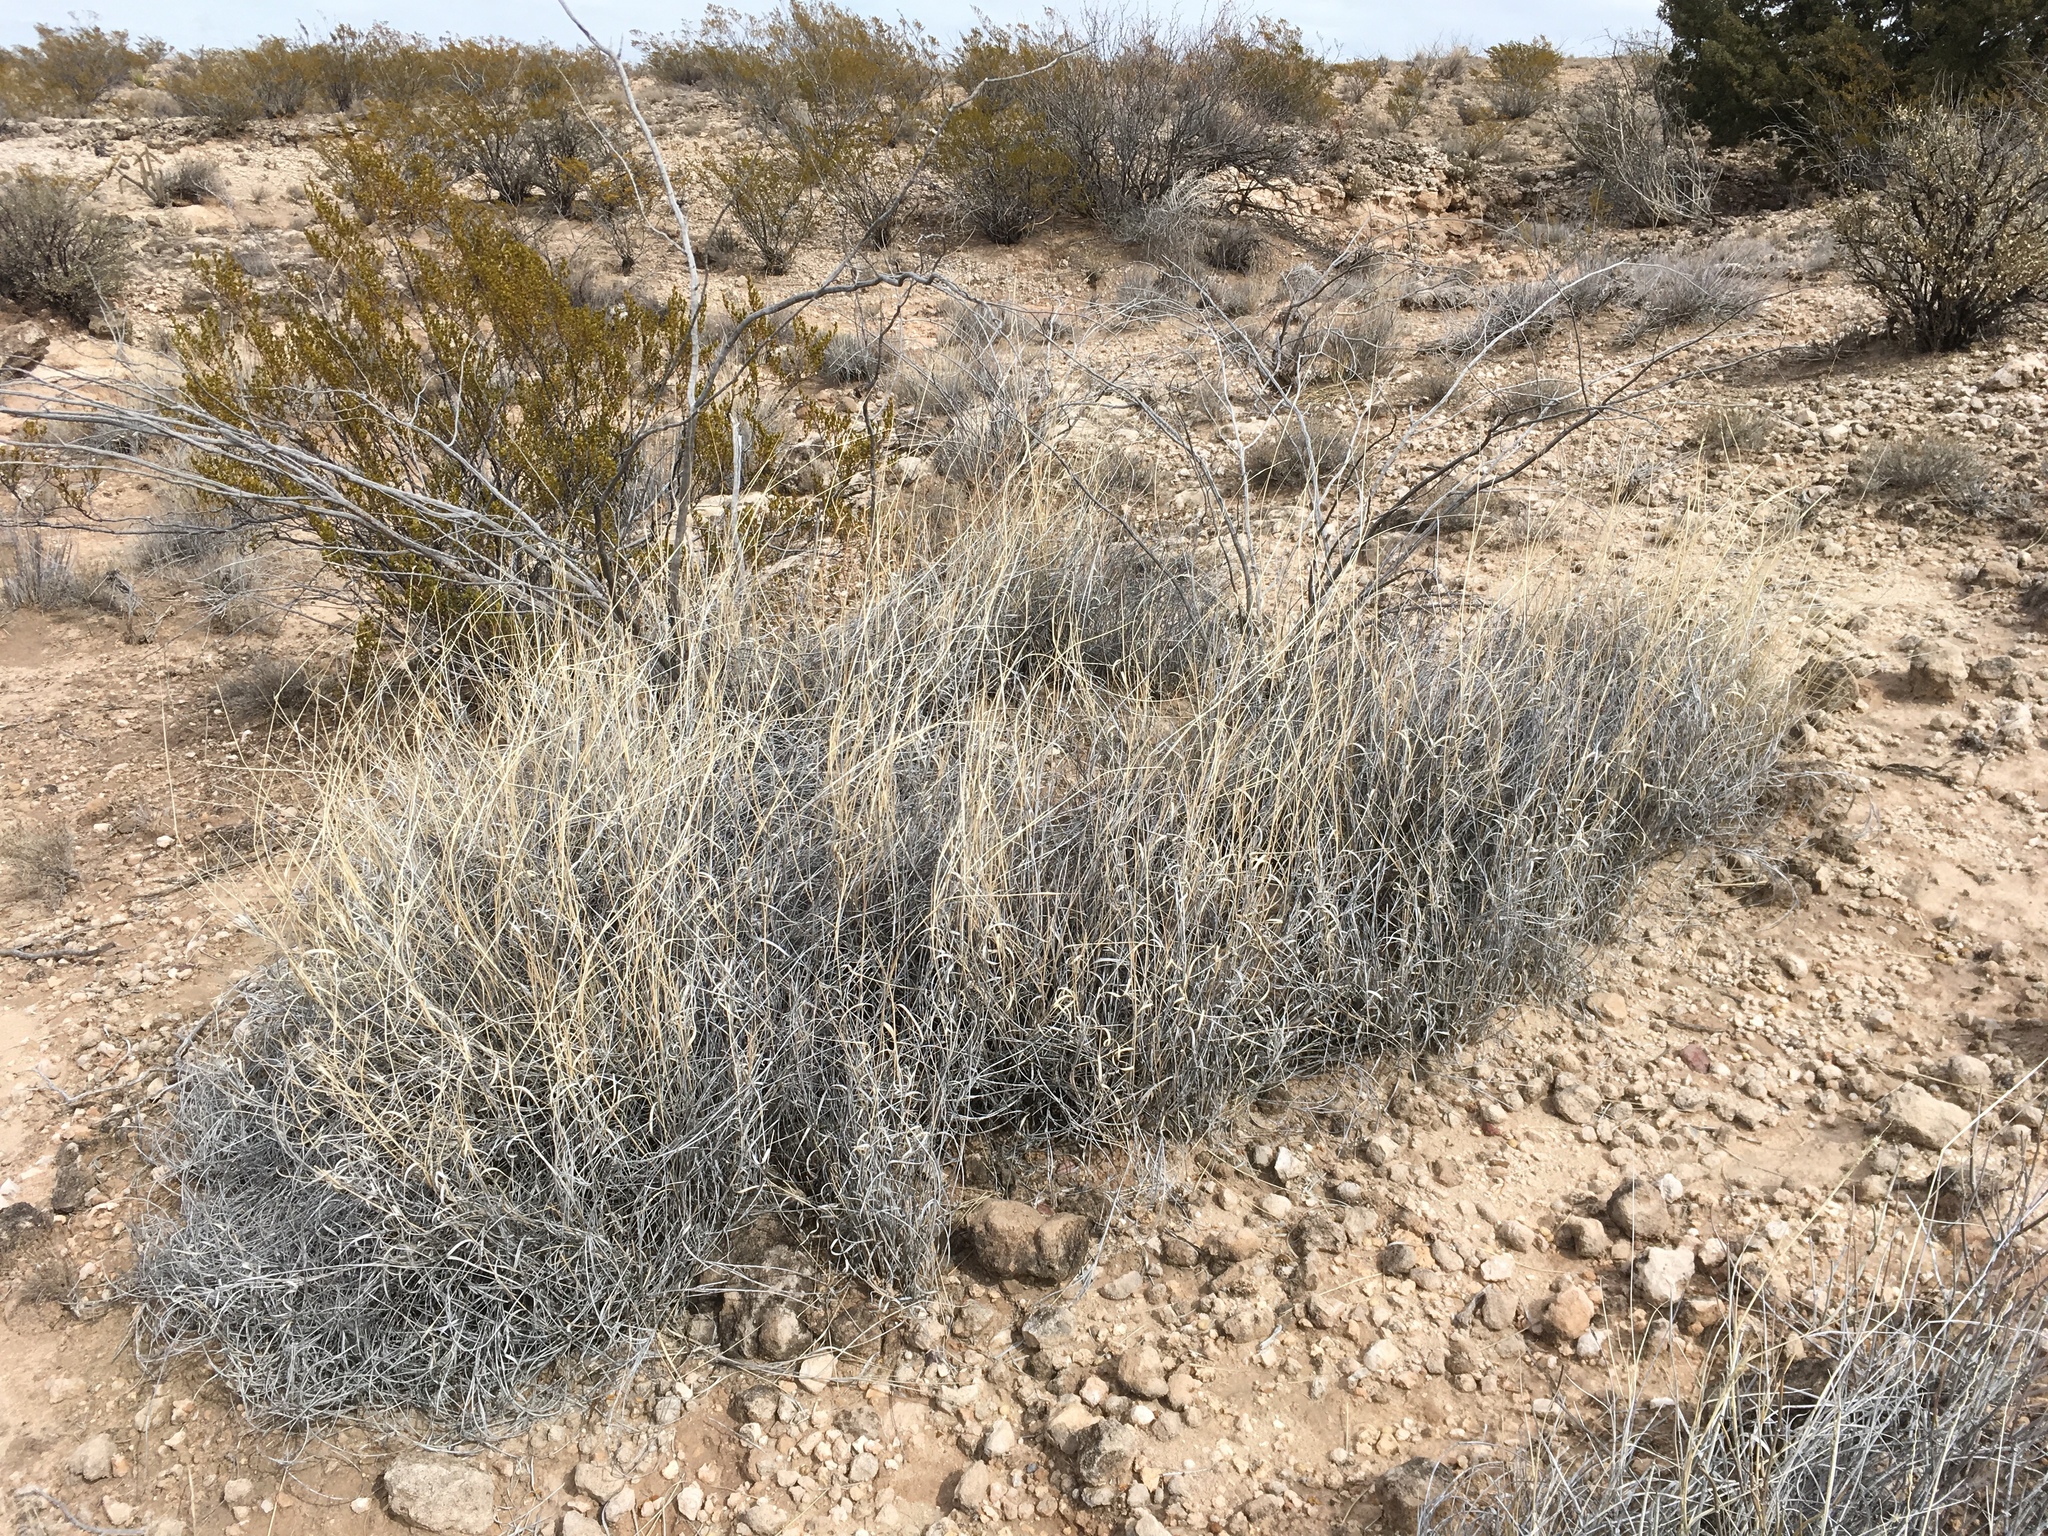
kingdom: Plantae
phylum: Tracheophyta
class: Liliopsida
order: Poales
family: Poaceae
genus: Hilaria
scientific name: Hilaria mutica
